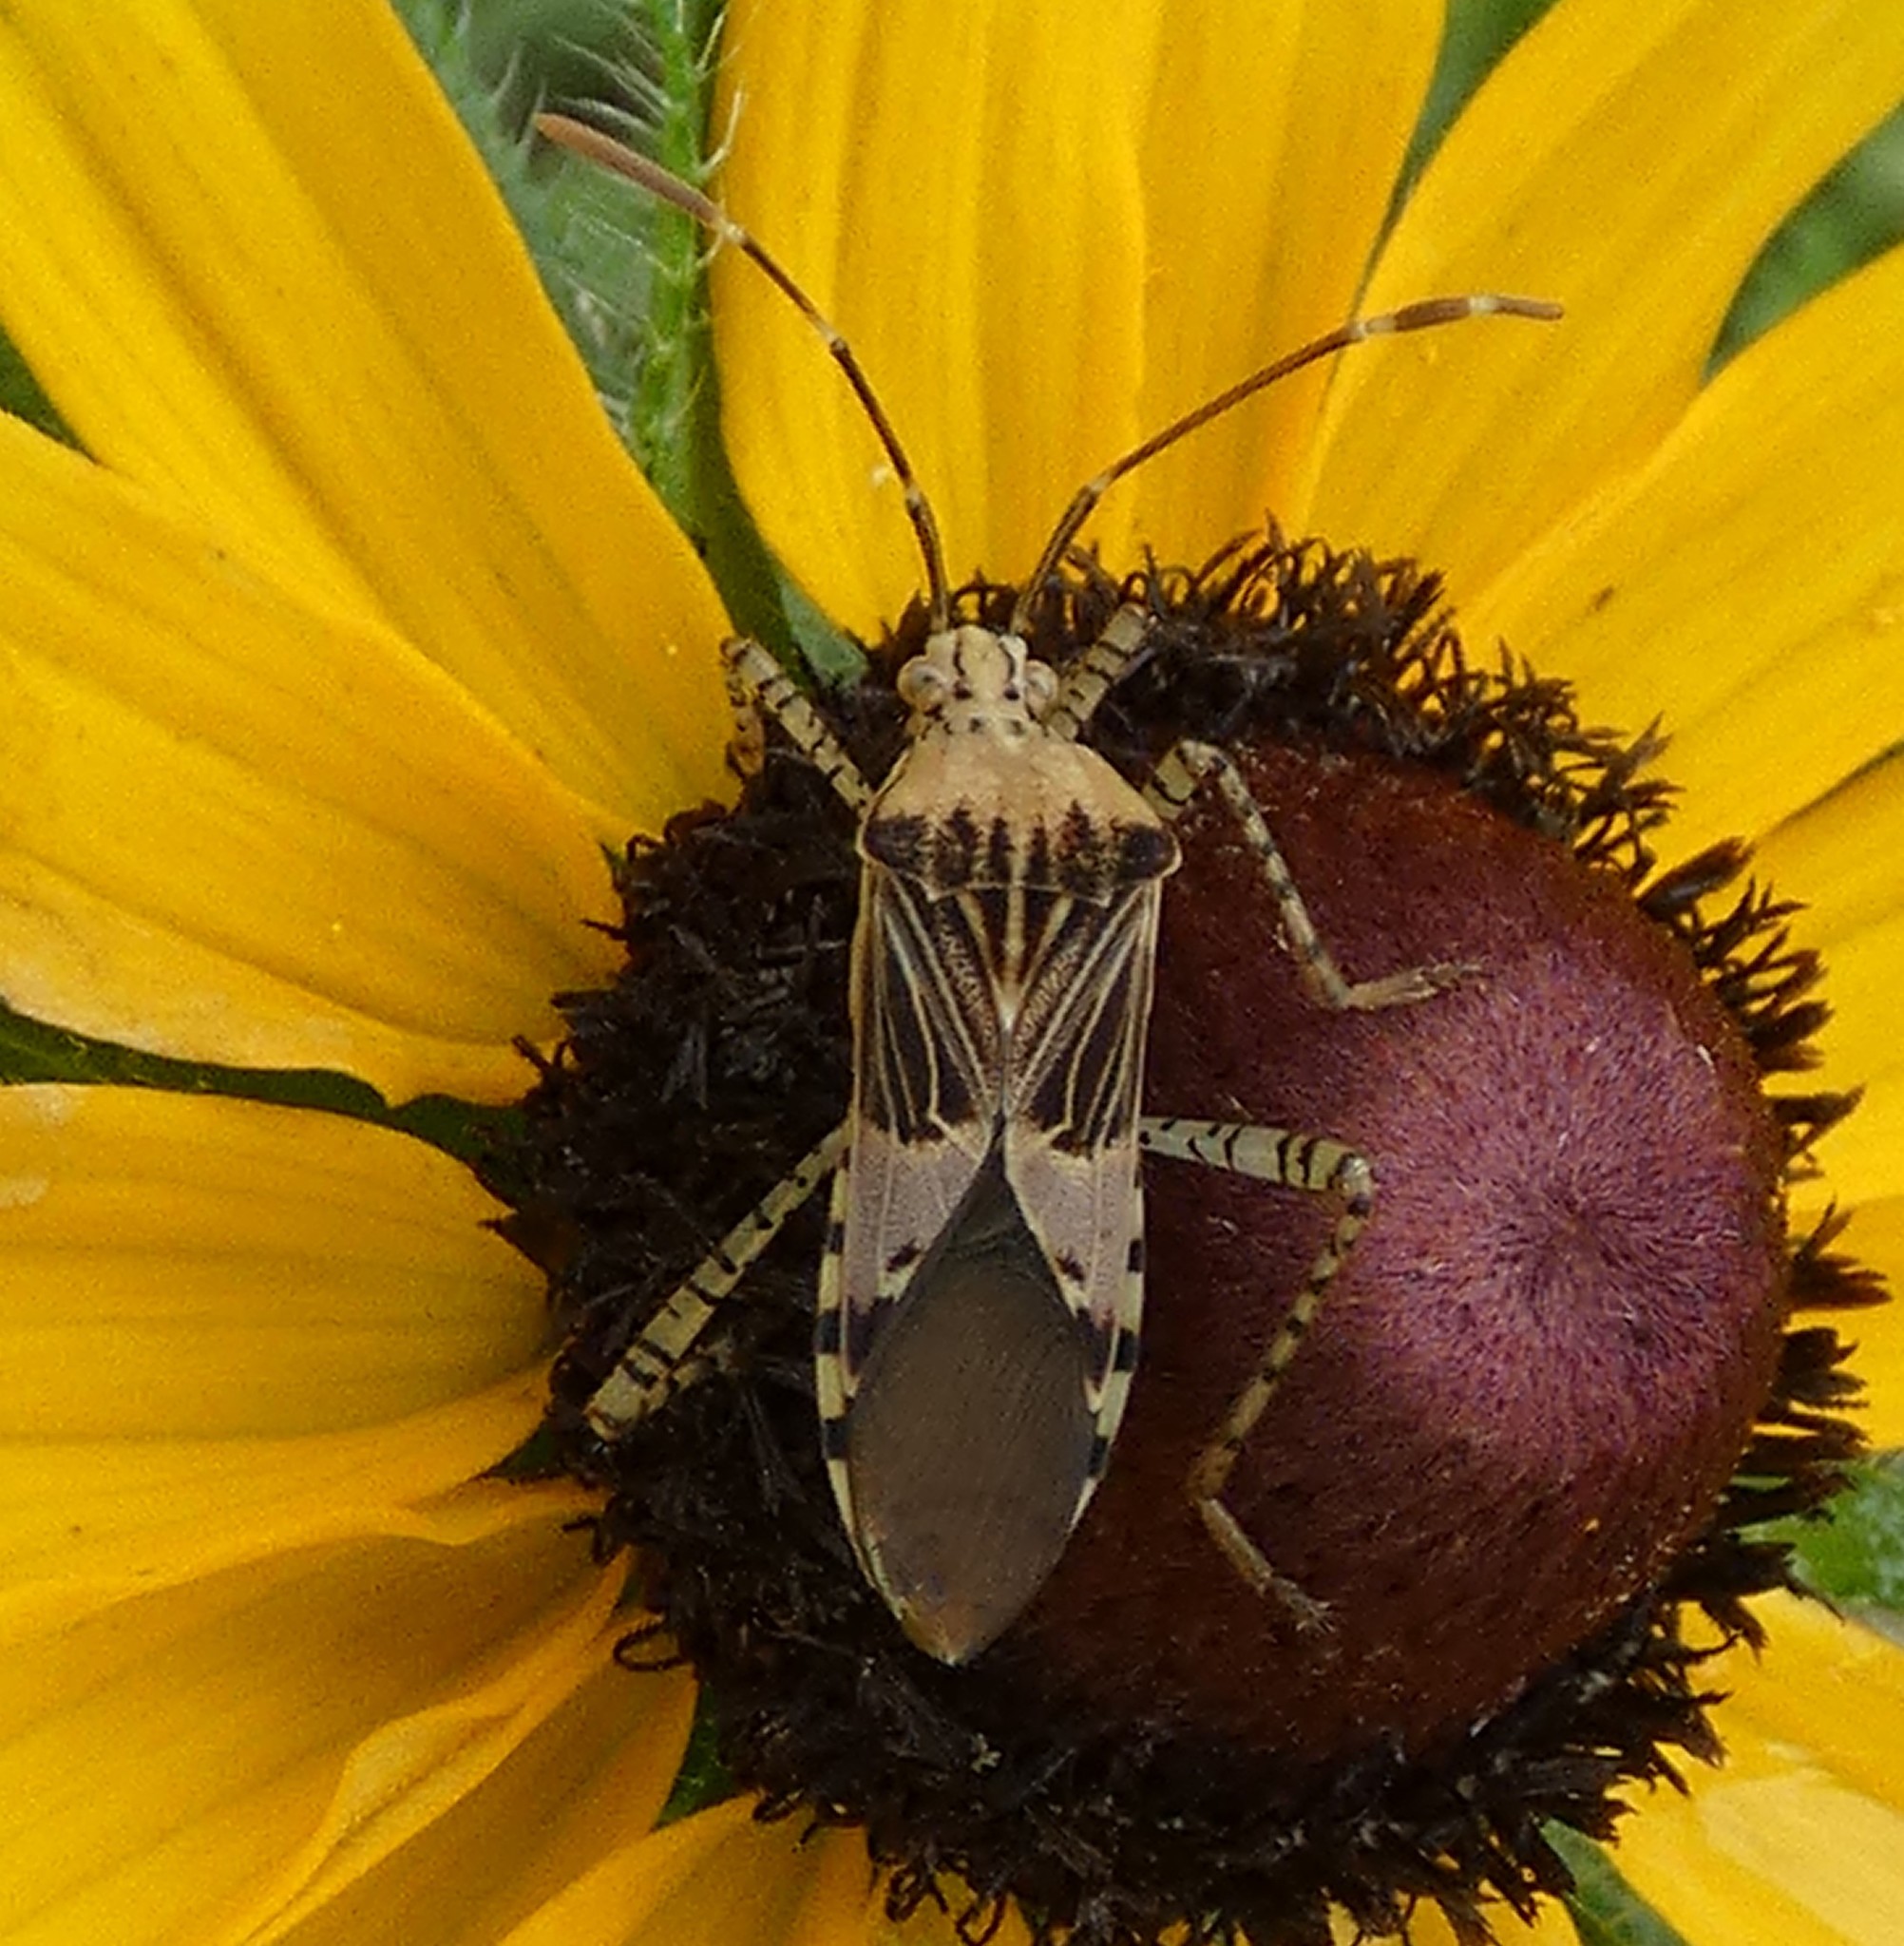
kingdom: Animalia
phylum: Arthropoda
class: Insecta
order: Hemiptera
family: Coreidae
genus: Hypselonotus
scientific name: Hypselonotus punctiventris
